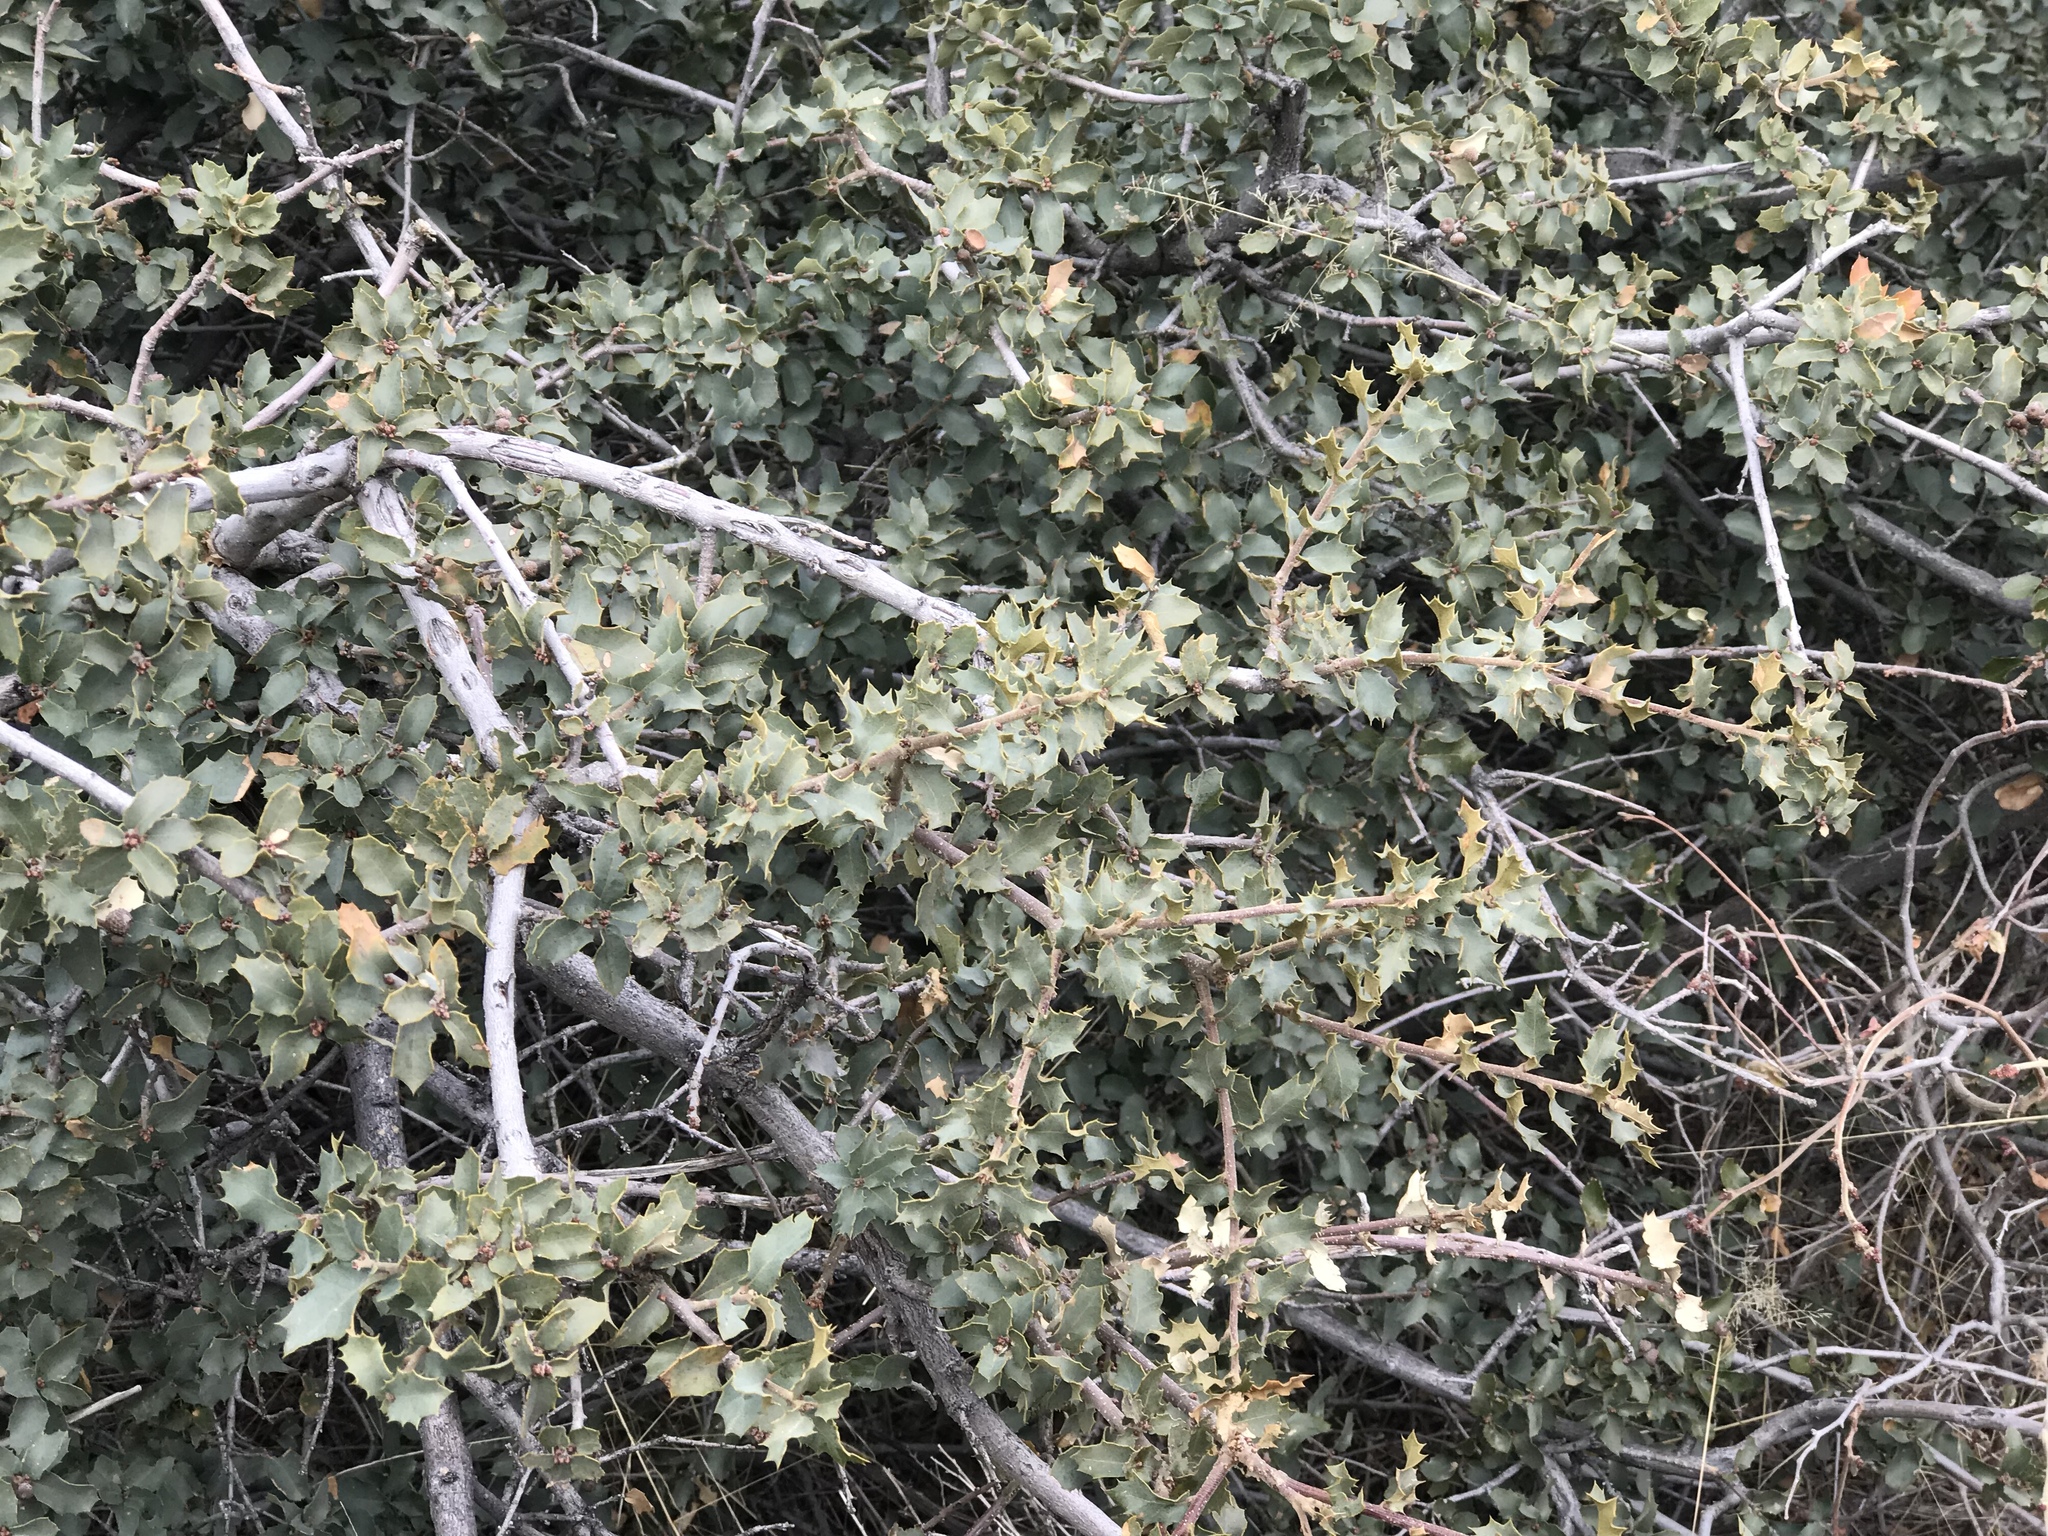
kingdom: Plantae
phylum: Tracheophyta
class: Magnoliopsida
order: Fagales
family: Fagaceae
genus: Quercus
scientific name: Quercus turbinella
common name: Sonoran scrub oak
